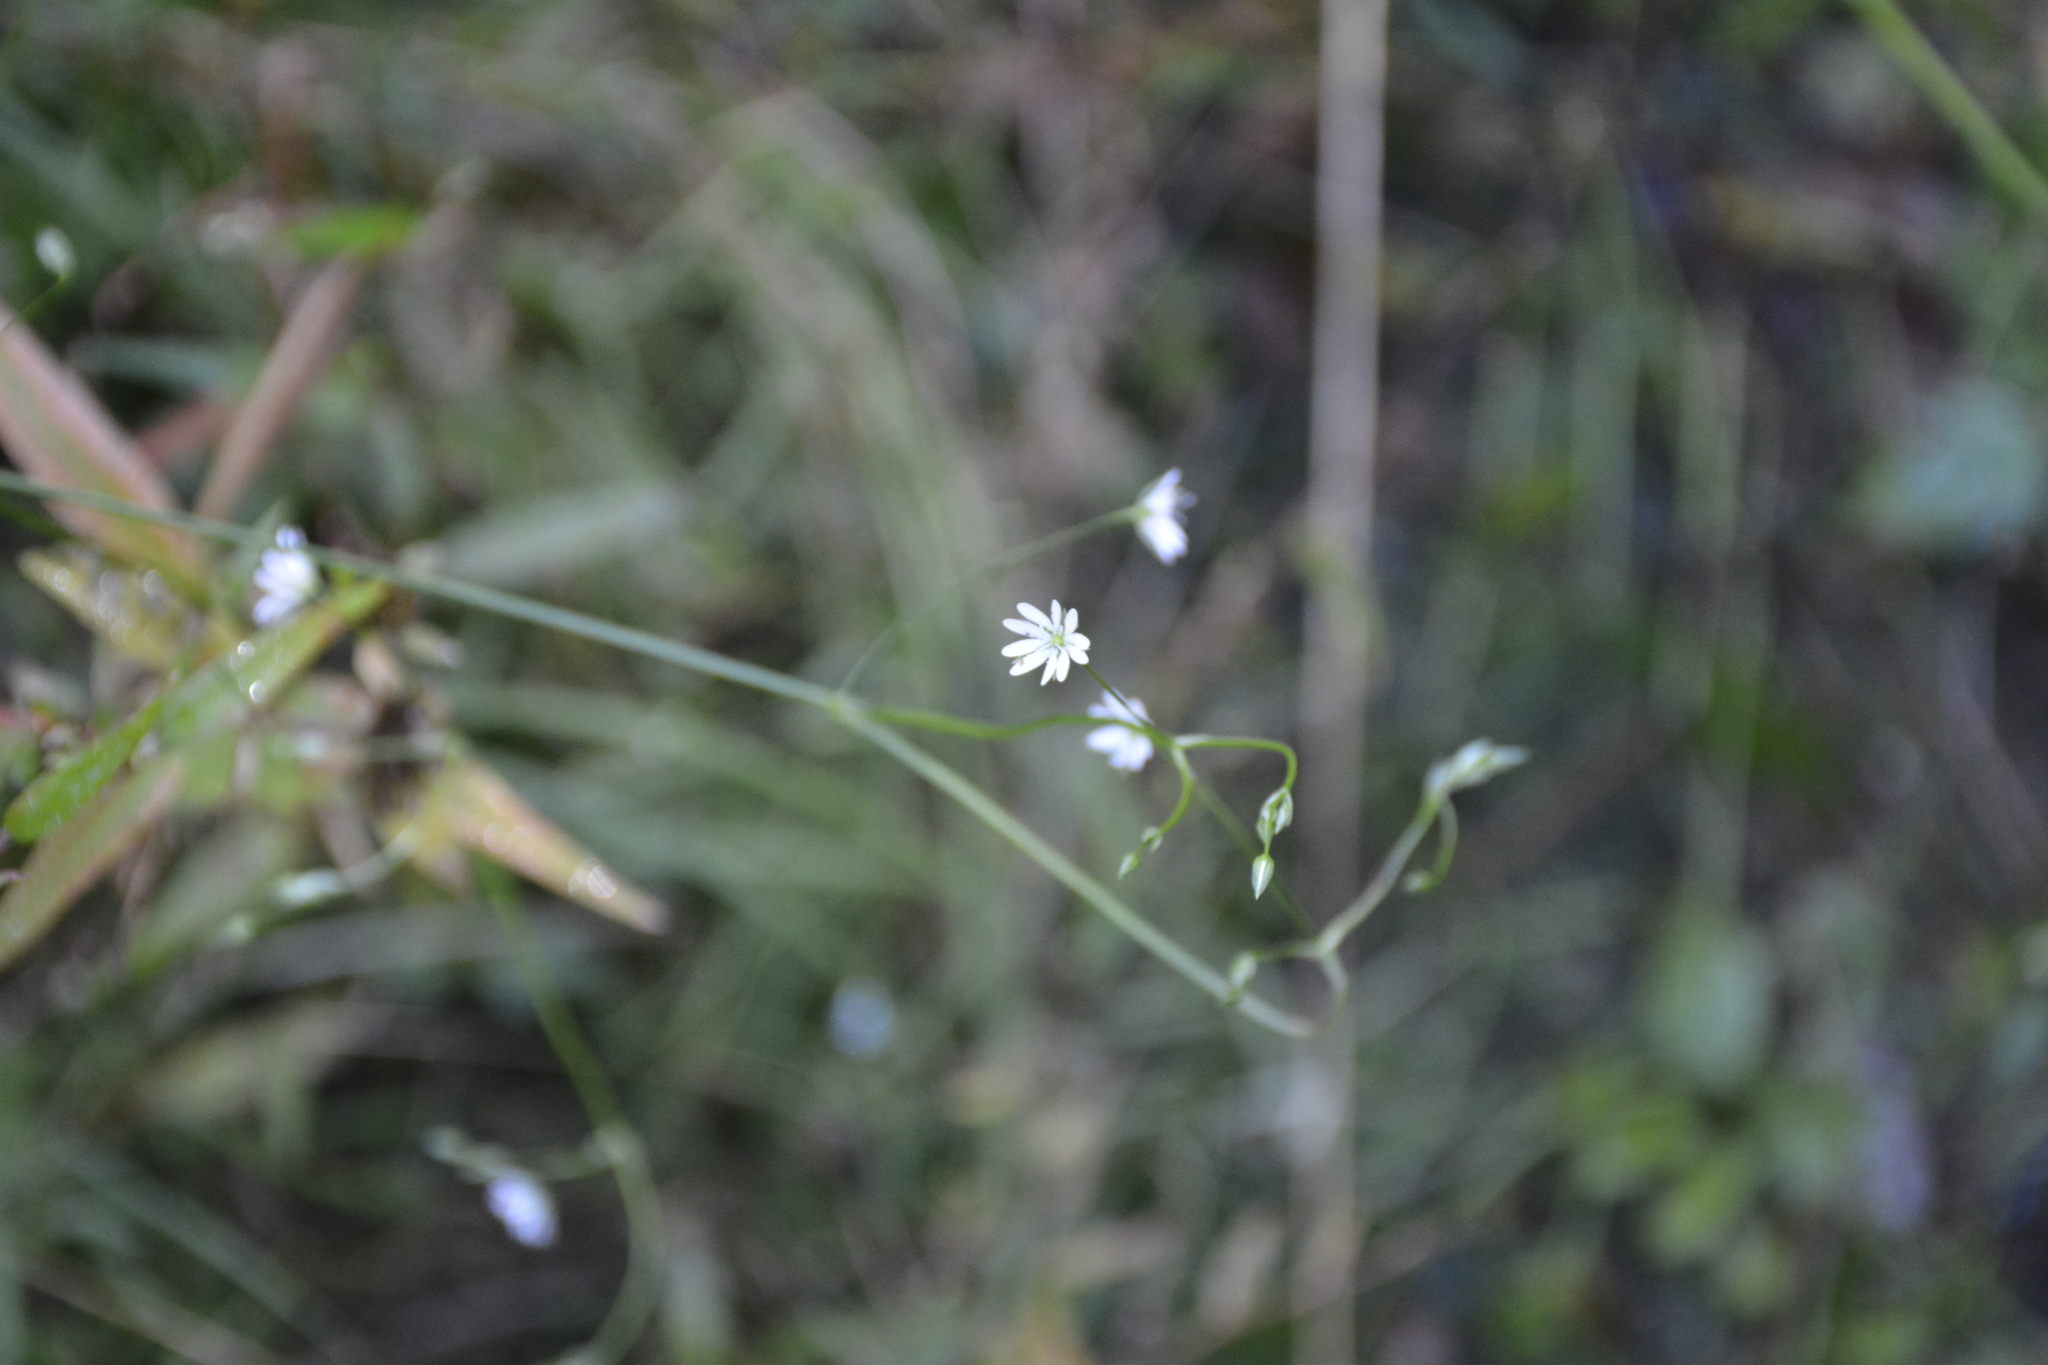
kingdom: Plantae
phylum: Tracheophyta
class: Magnoliopsida
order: Caryophyllales
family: Caryophyllaceae
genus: Stellaria
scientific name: Stellaria graminea
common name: Grass-like starwort
